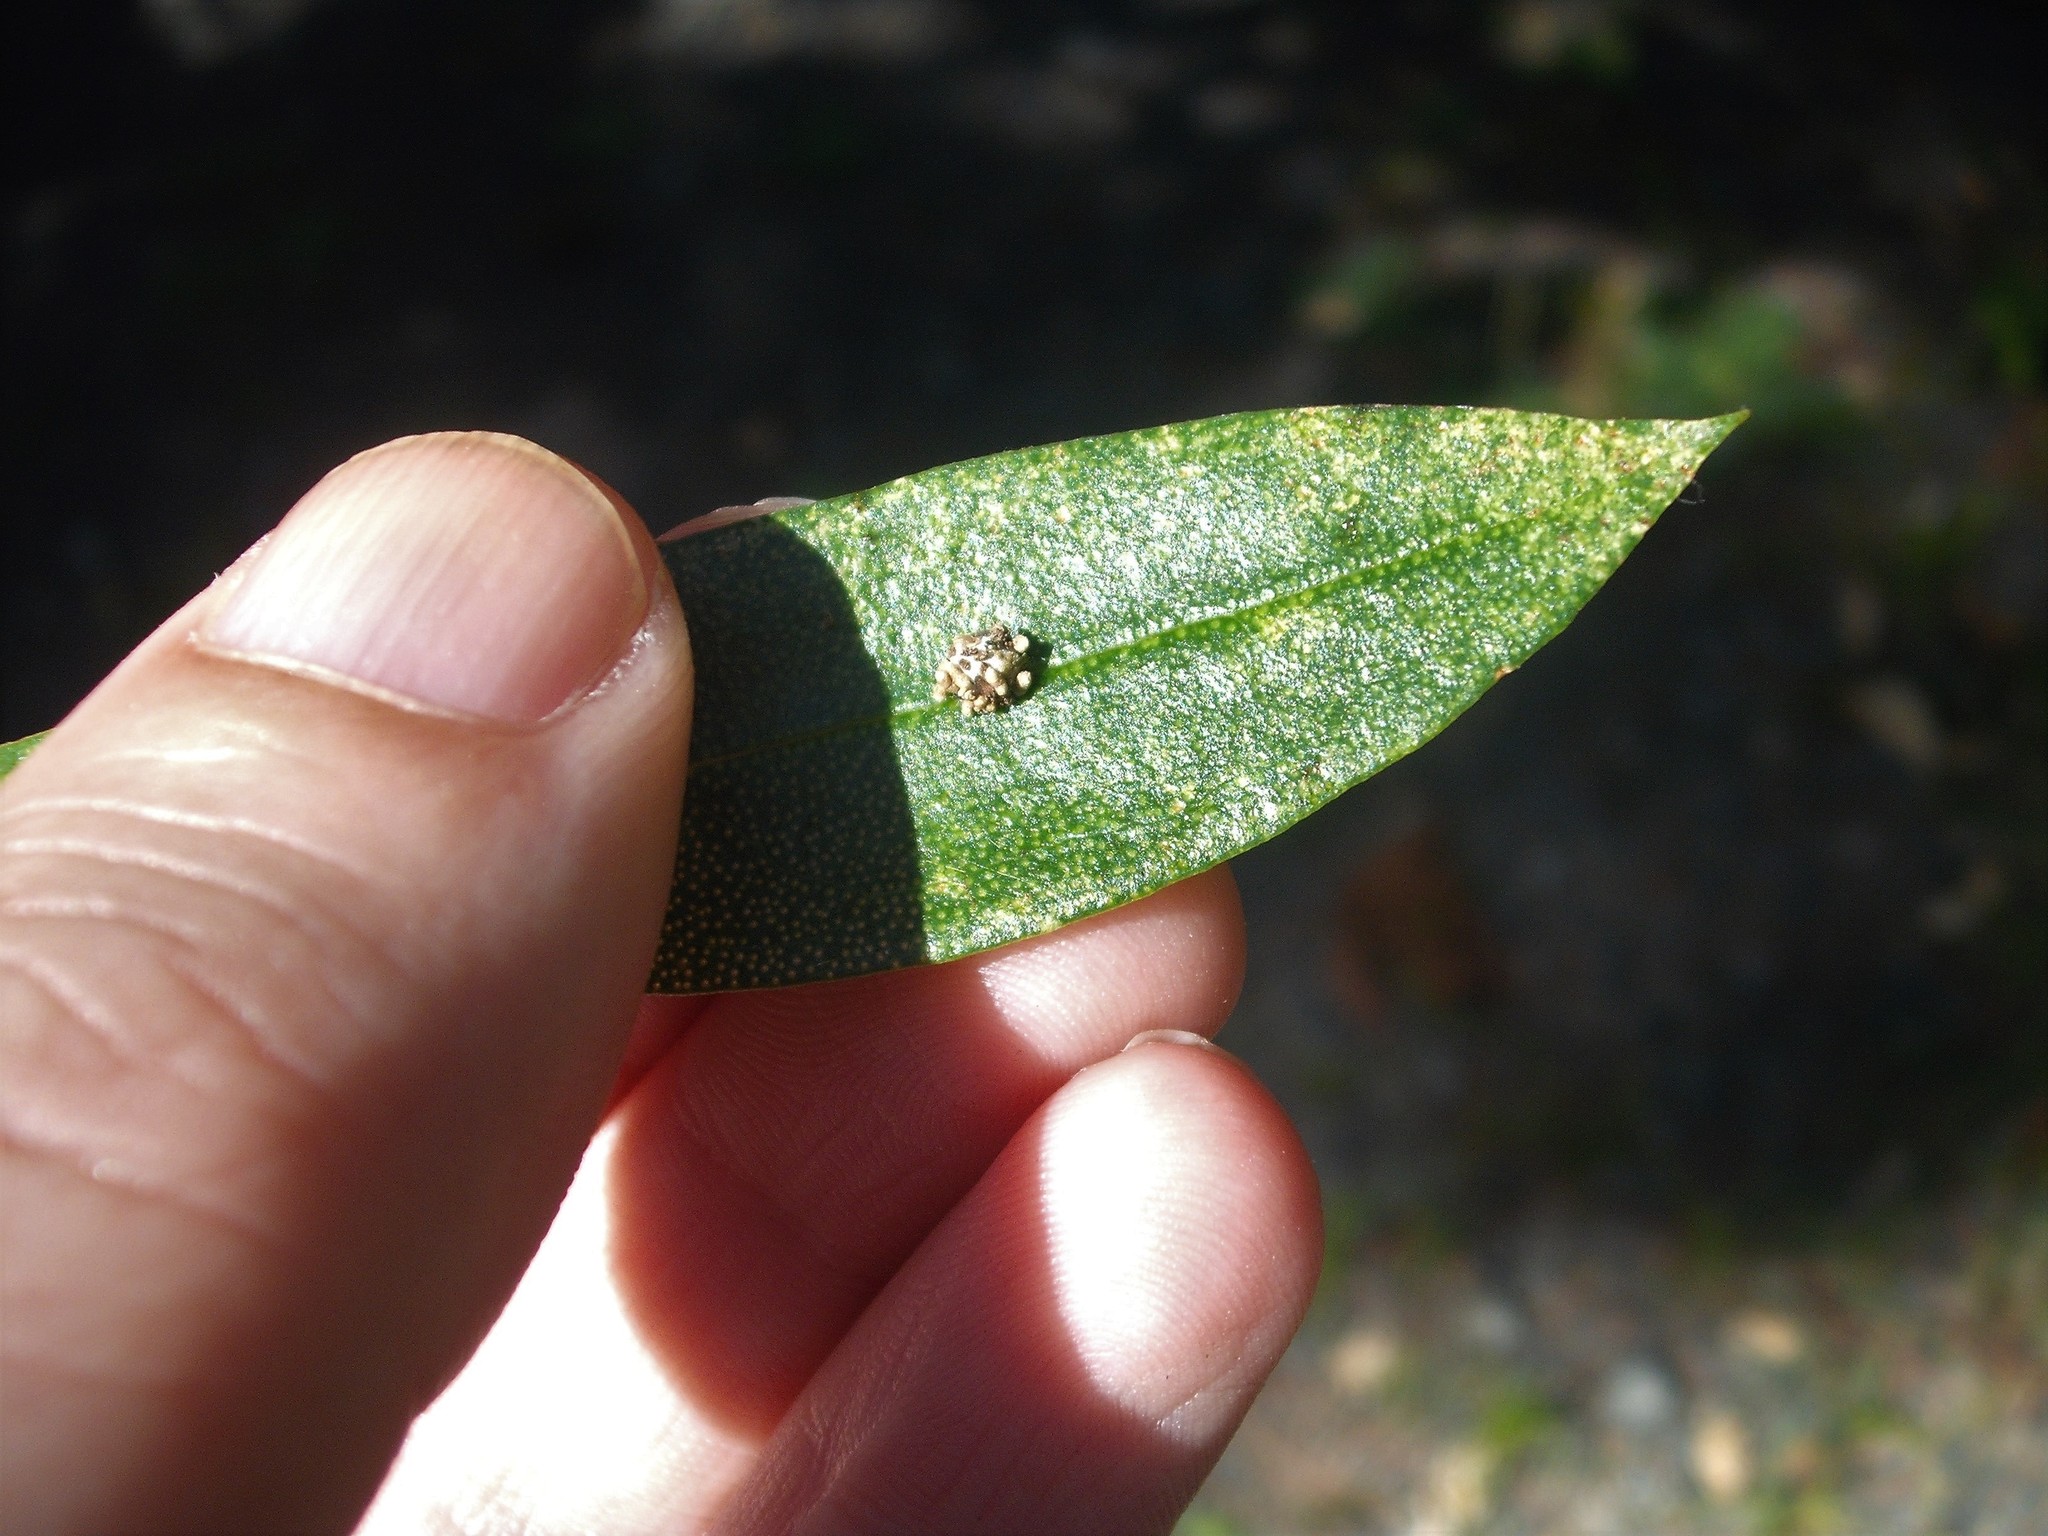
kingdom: Animalia
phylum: Arthropoda
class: Insecta
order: Neuroptera
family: Chrysopidae
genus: Mallada
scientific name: Mallada basalis
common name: Green lacewing
